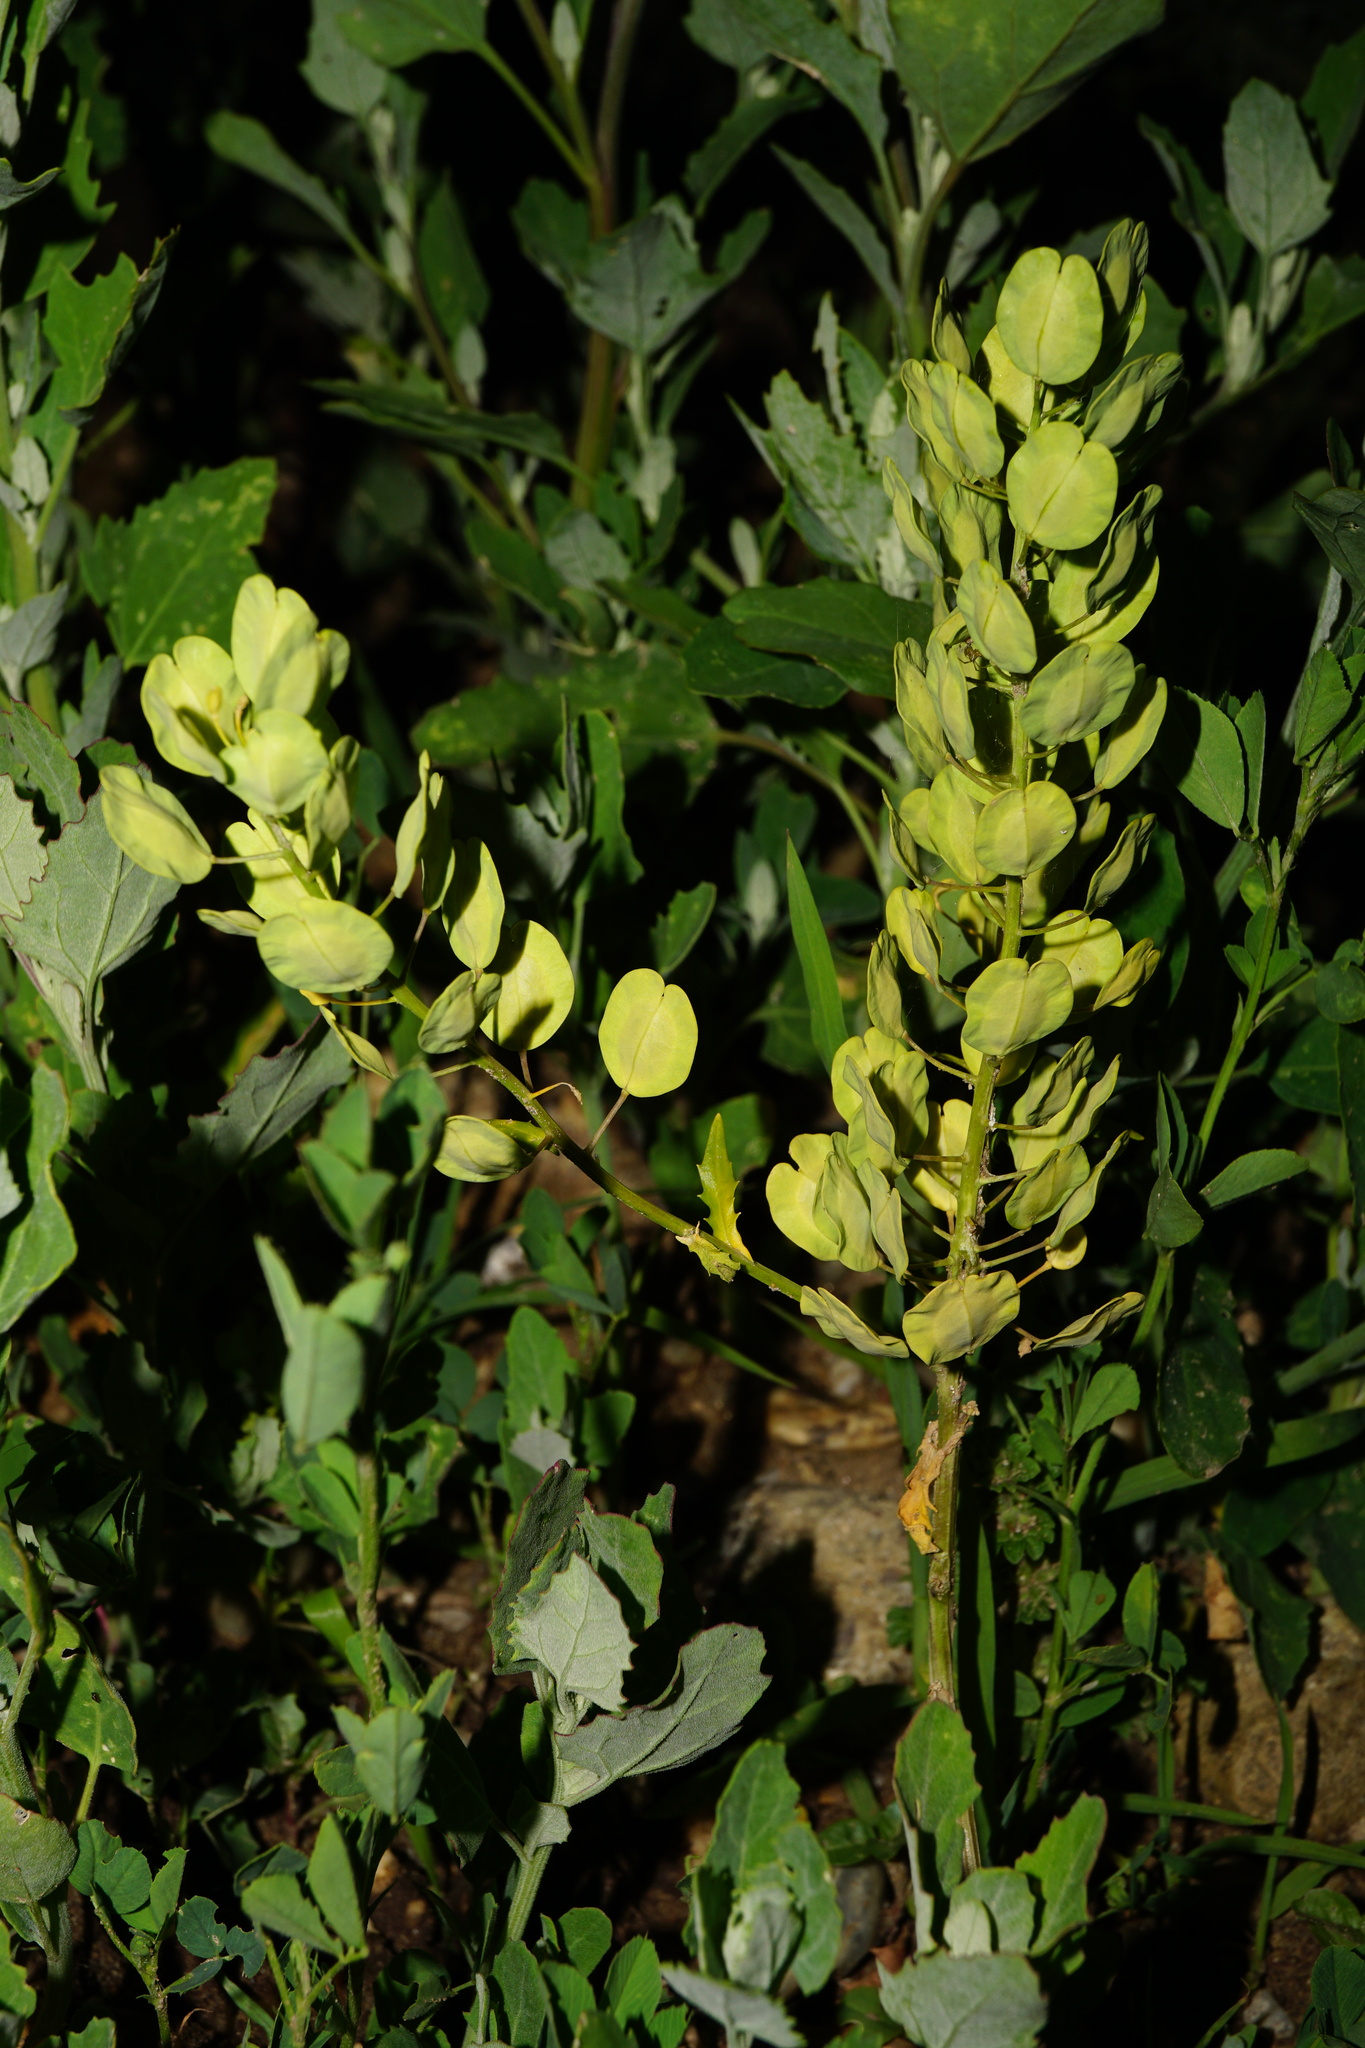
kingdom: Plantae
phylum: Tracheophyta
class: Magnoliopsida
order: Brassicales
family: Brassicaceae
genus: Thlaspi
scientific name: Thlaspi arvense
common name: Field pennycress
